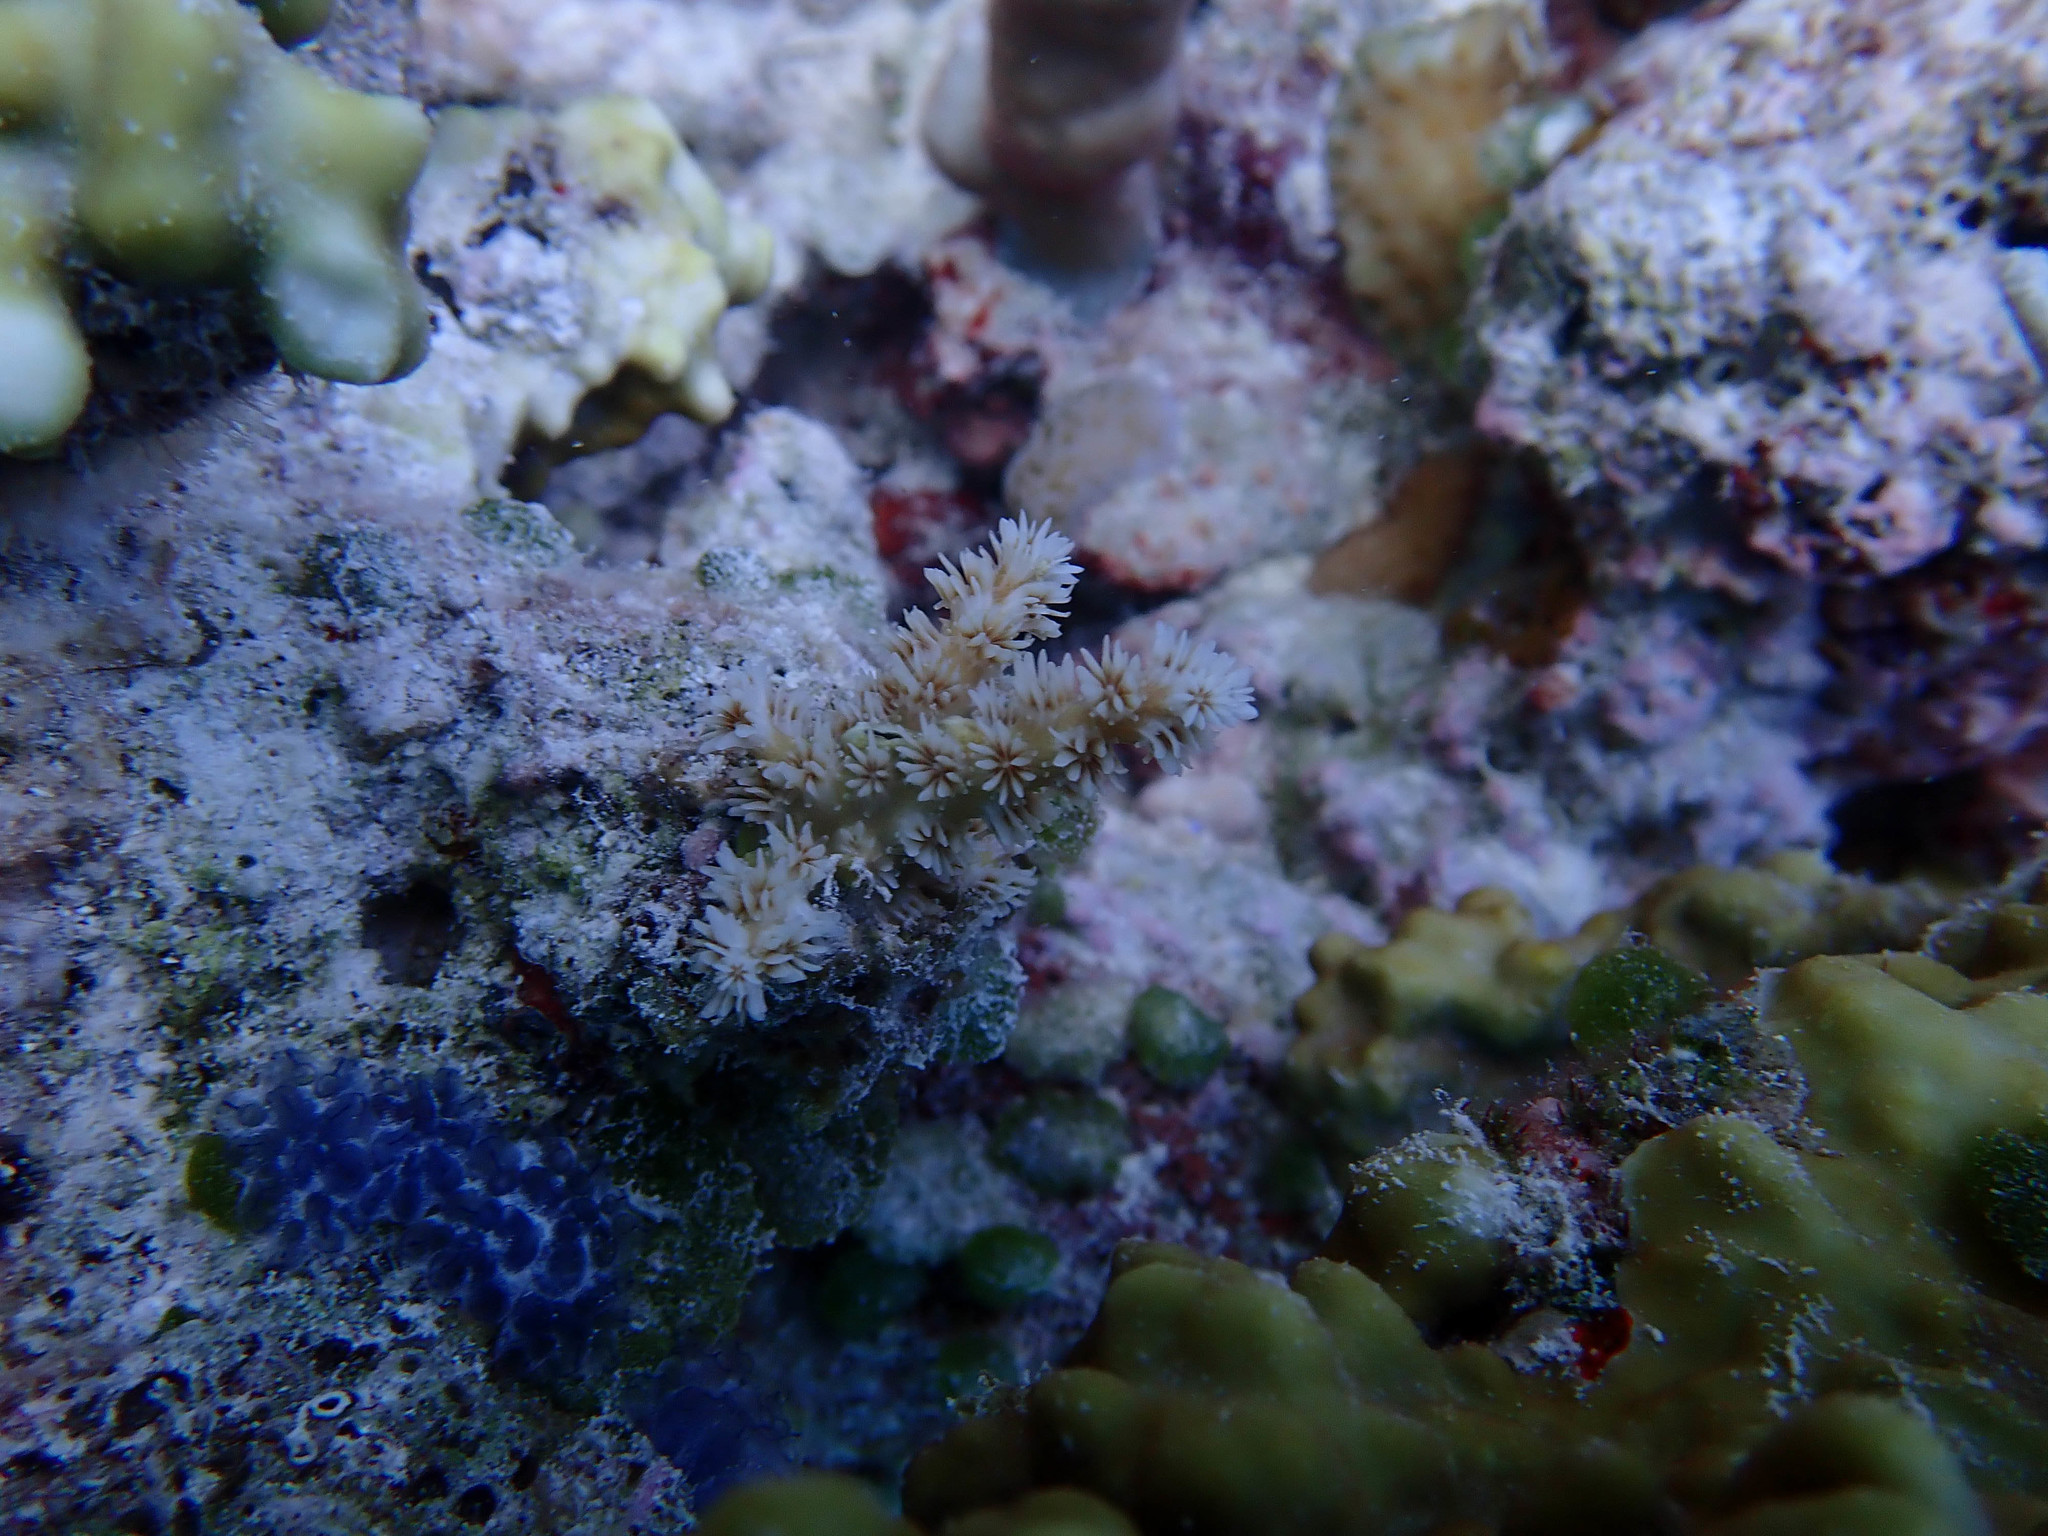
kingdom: Animalia
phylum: Cnidaria
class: Anthozoa
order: Scleractinia
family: Euphylliidae
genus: Galaxea
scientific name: Galaxea horrescens
